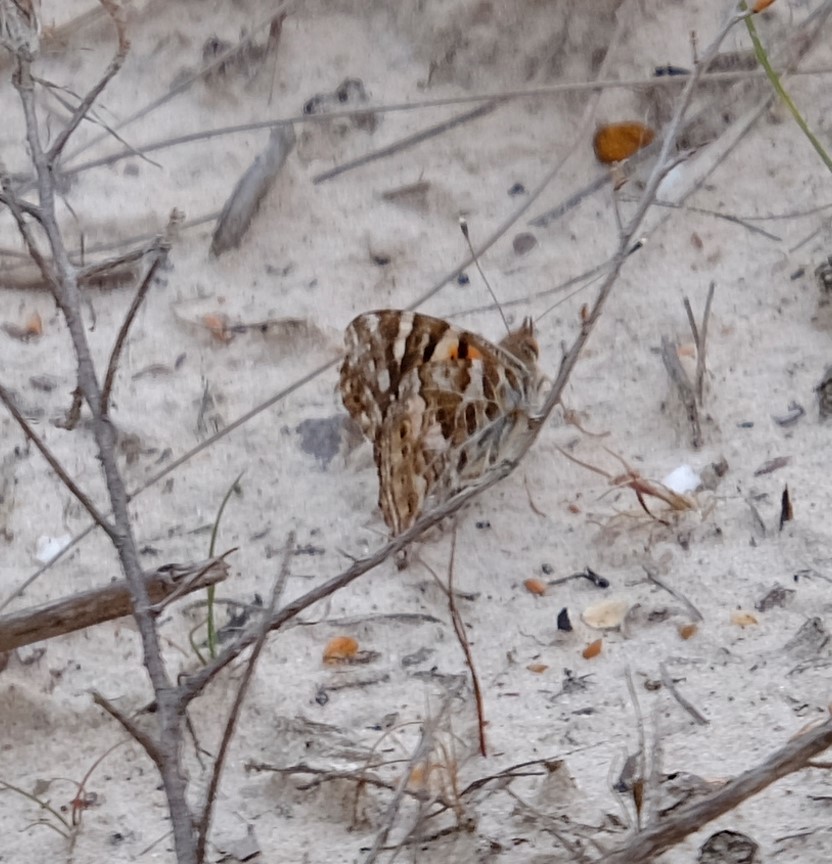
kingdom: Animalia
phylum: Arthropoda
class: Insecta
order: Lepidoptera
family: Nymphalidae
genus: Vanessa
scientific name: Vanessa kershawi
